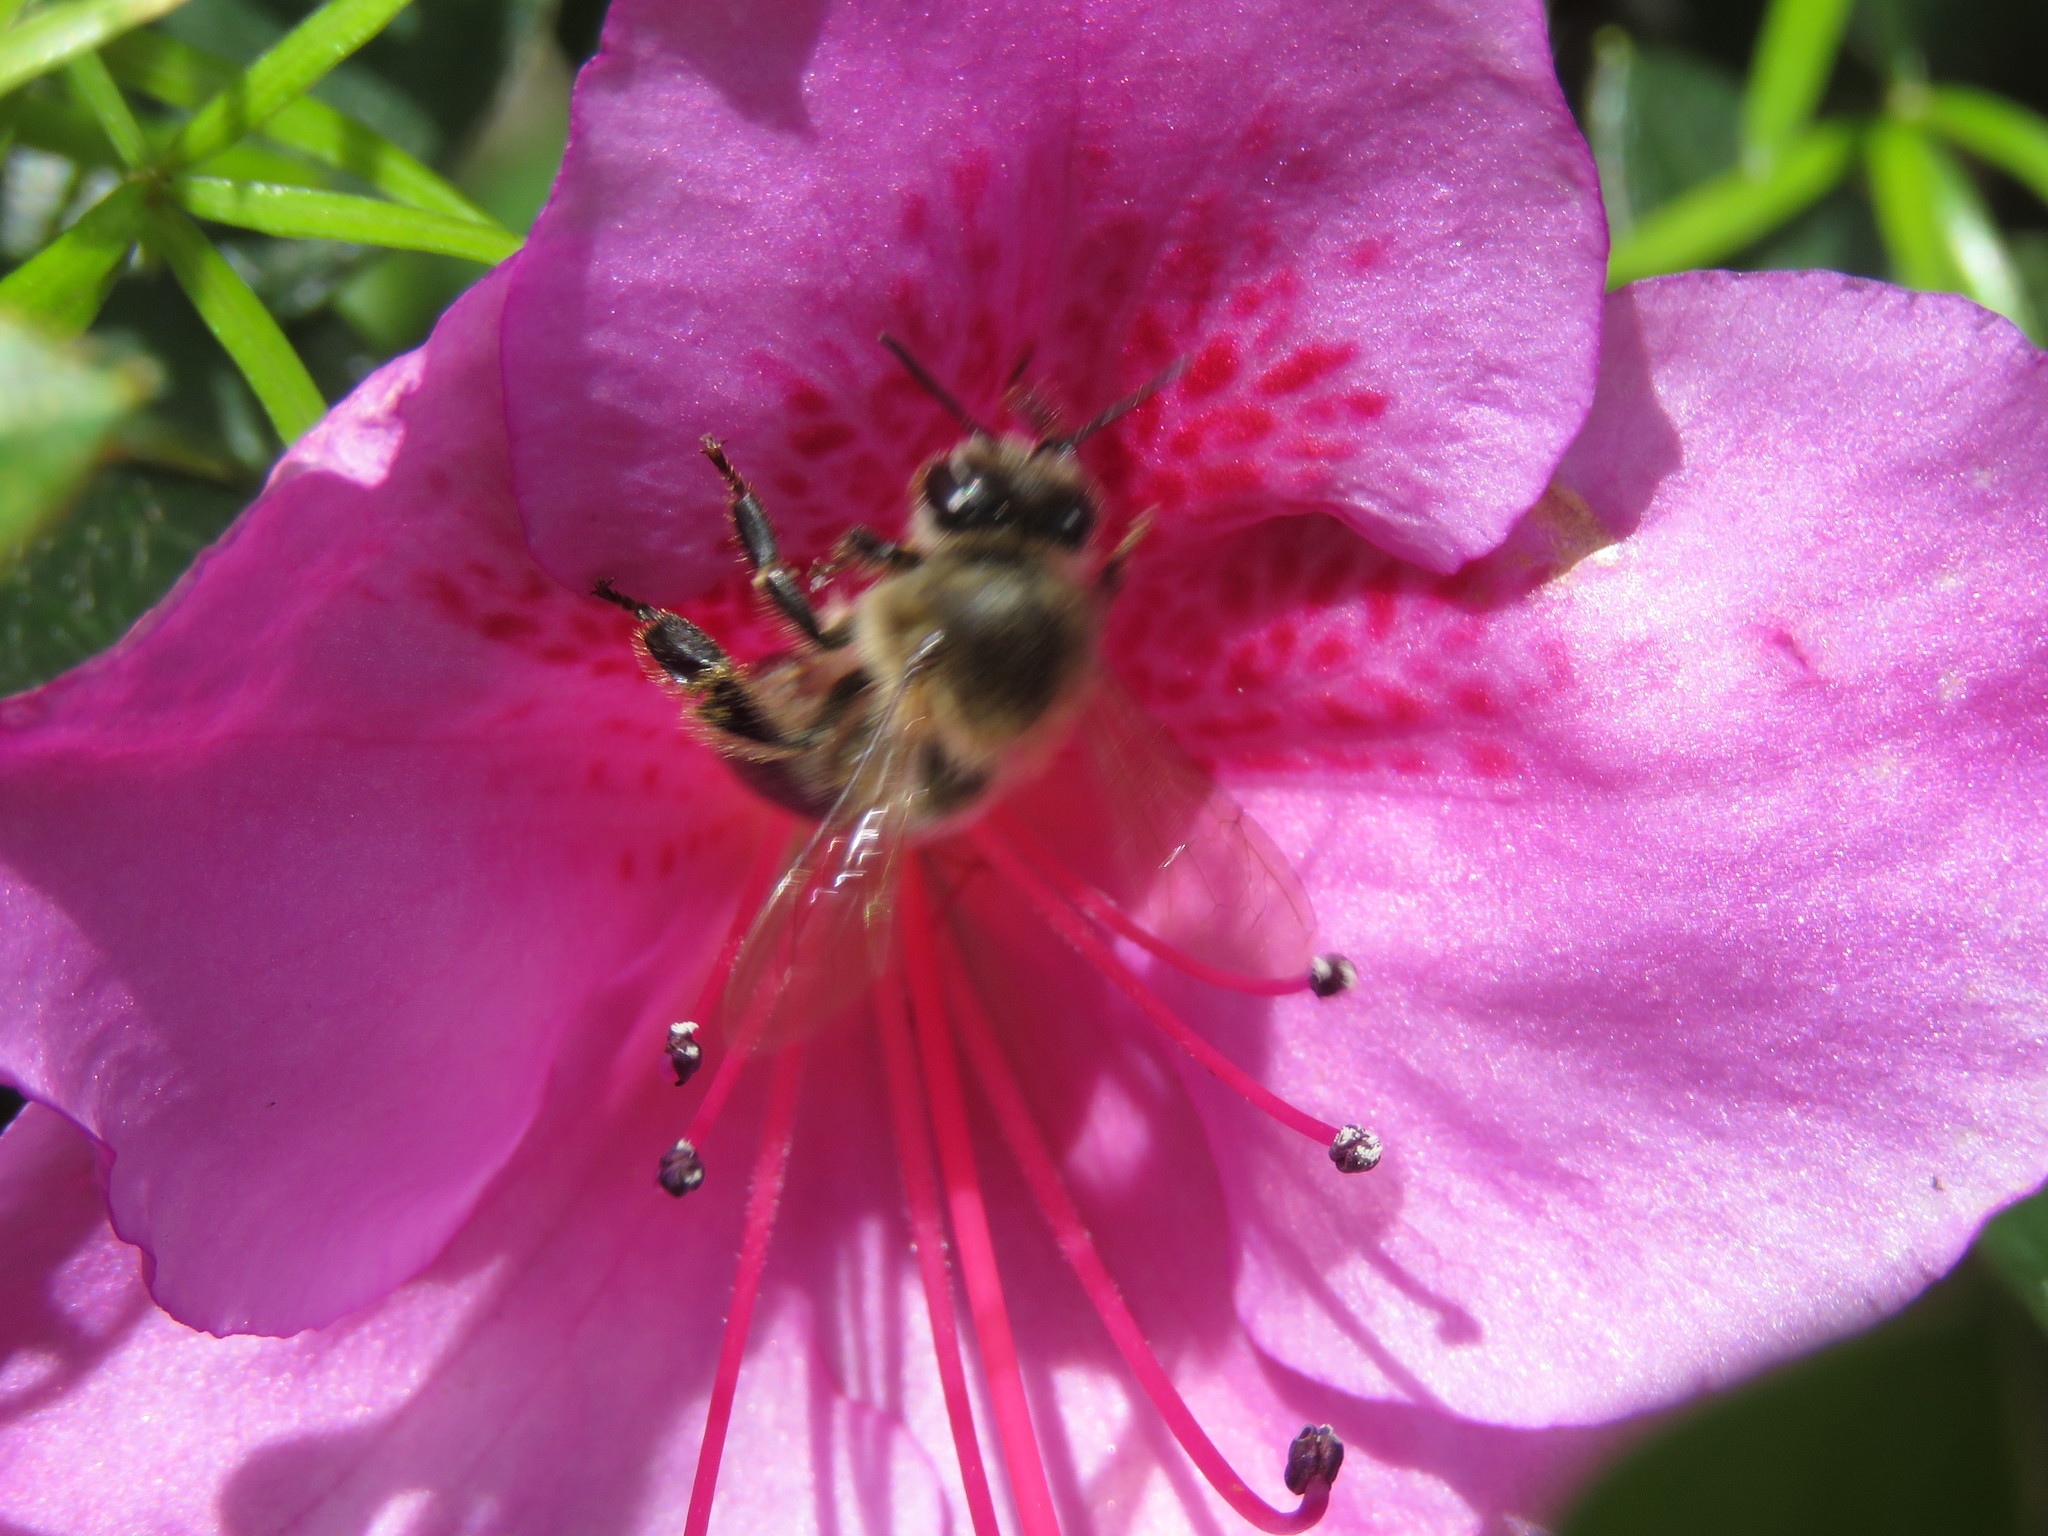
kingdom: Animalia
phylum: Arthropoda
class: Insecta
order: Hymenoptera
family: Apidae
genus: Apis
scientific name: Apis mellifera
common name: Honey bee
